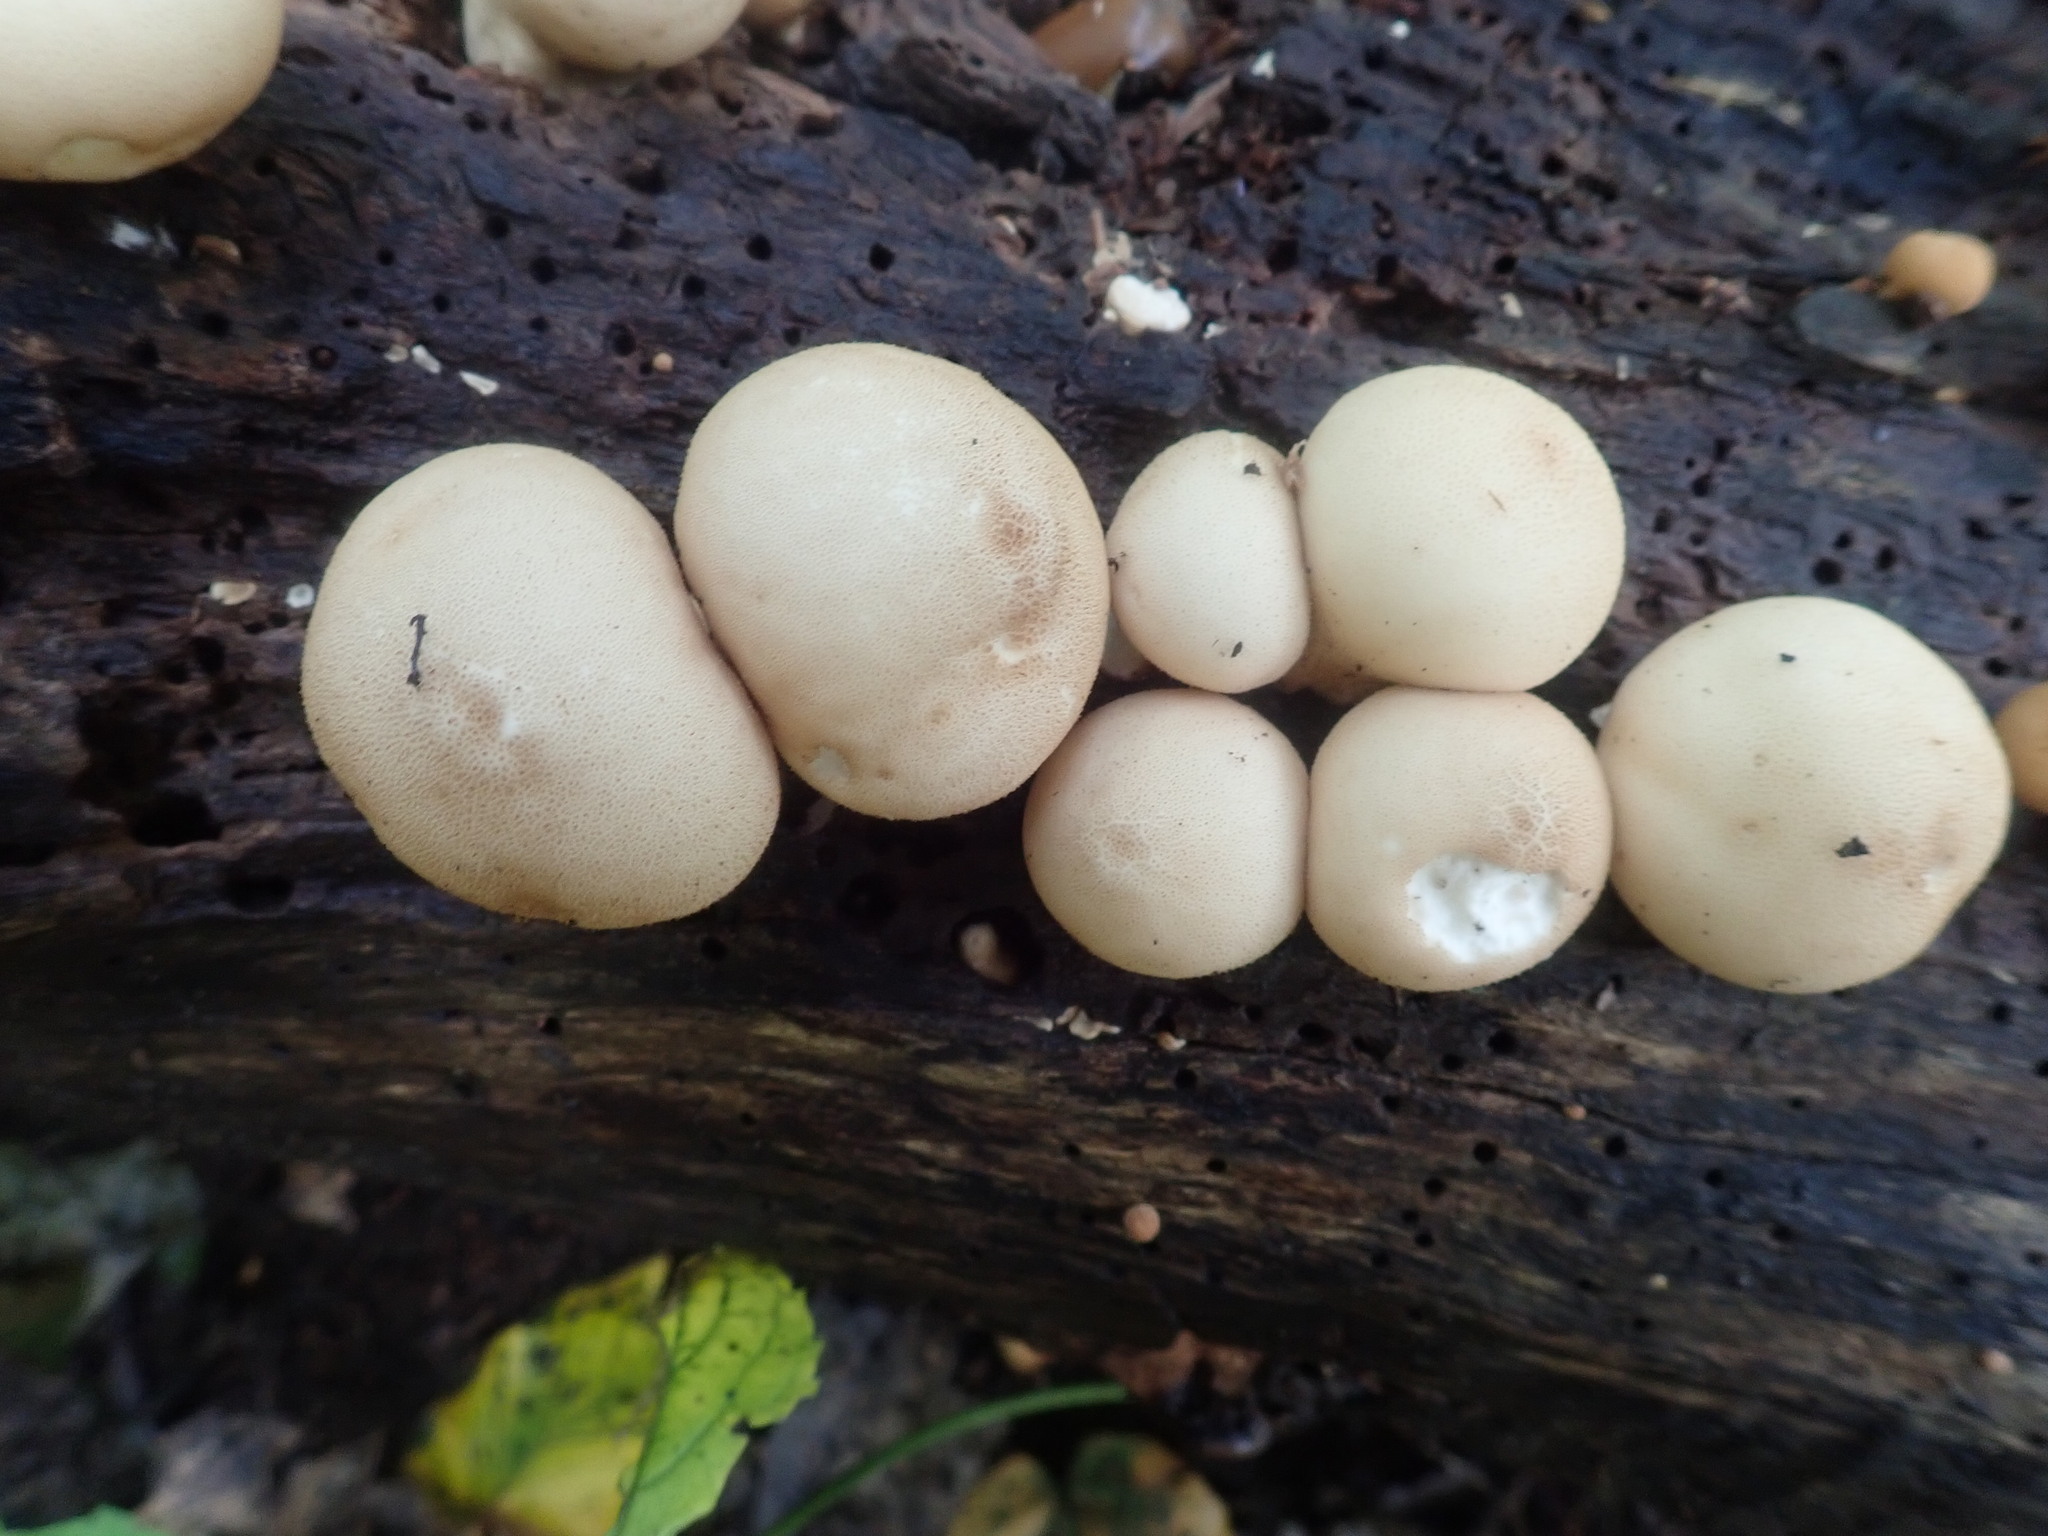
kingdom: Fungi
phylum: Basidiomycota
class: Agaricomycetes
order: Agaricales
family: Lycoperdaceae
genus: Apioperdon
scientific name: Apioperdon pyriforme
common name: Pear-shaped puffball
